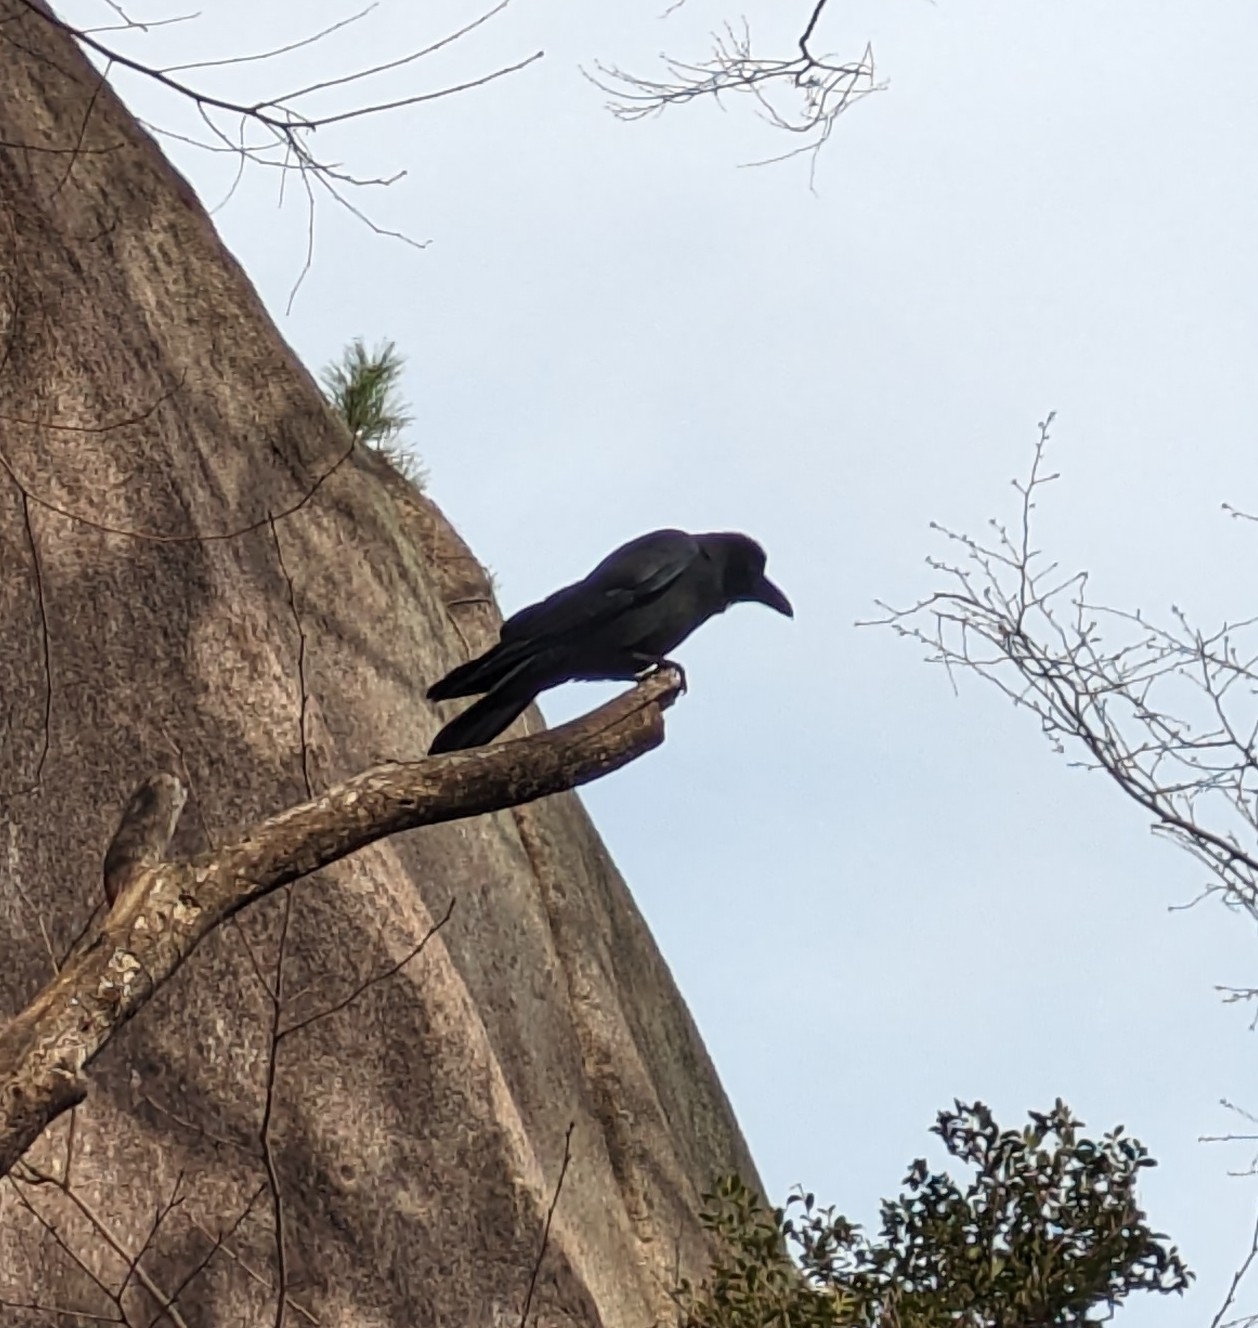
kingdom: Animalia
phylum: Chordata
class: Aves
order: Passeriformes
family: Corvidae
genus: Corvus
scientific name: Corvus macrorhynchos
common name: Large-billed crow
